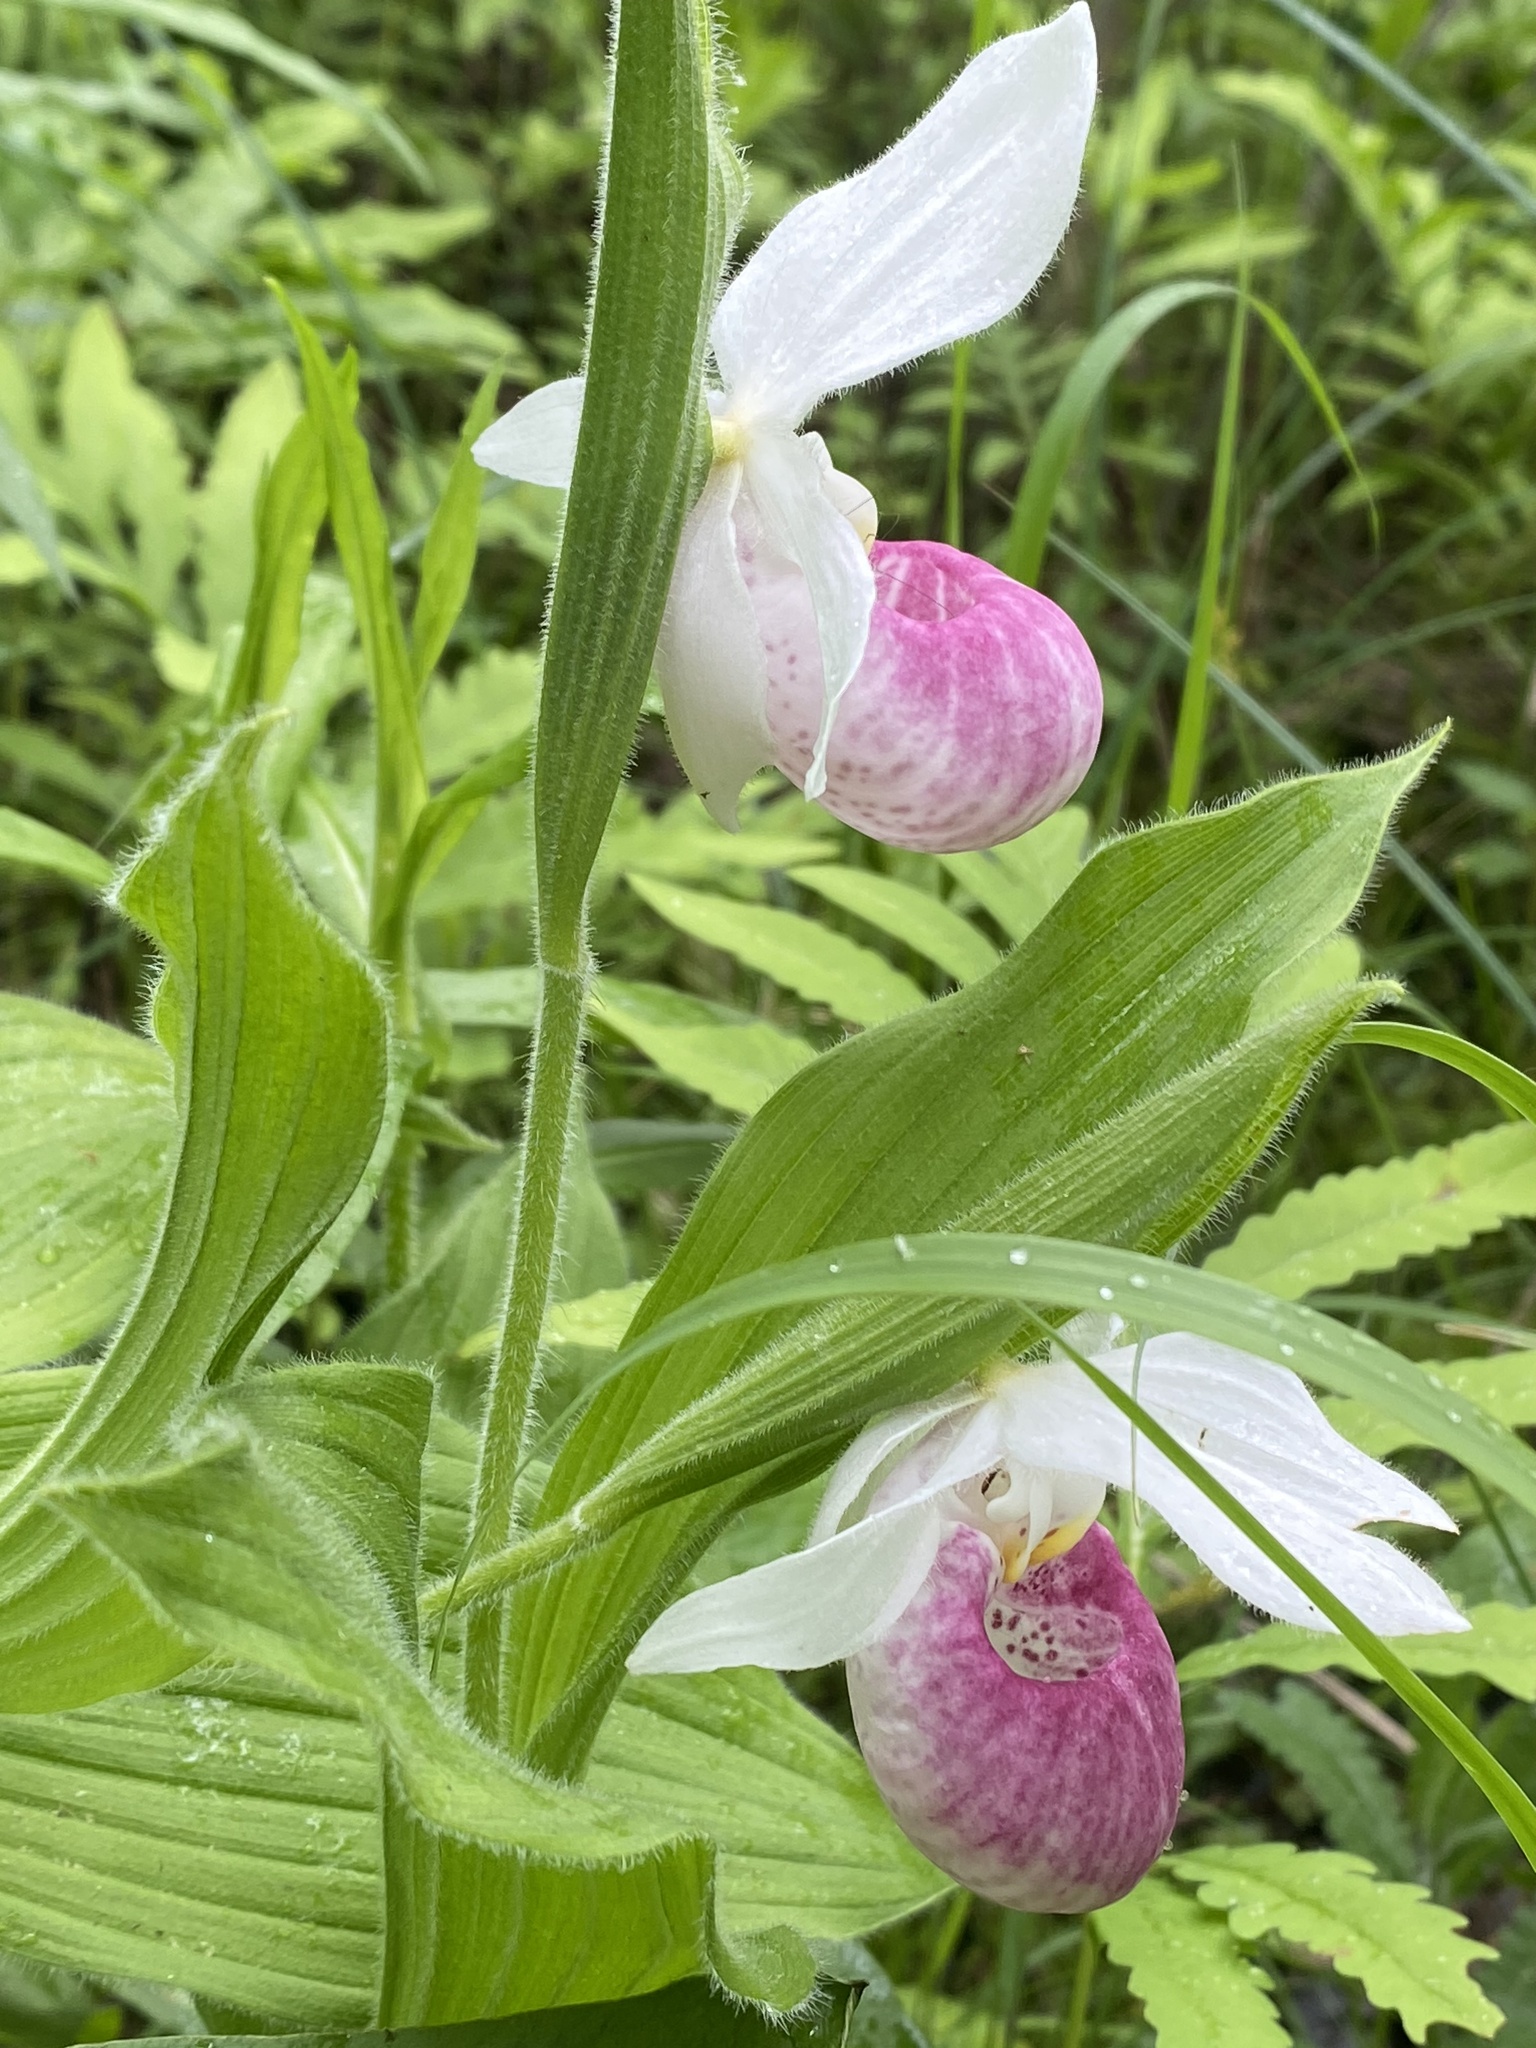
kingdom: Plantae
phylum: Tracheophyta
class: Liliopsida
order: Asparagales
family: Orchidaceae
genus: Cypripedium
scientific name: Cypripedium reginae
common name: Queen lady's-slipper
